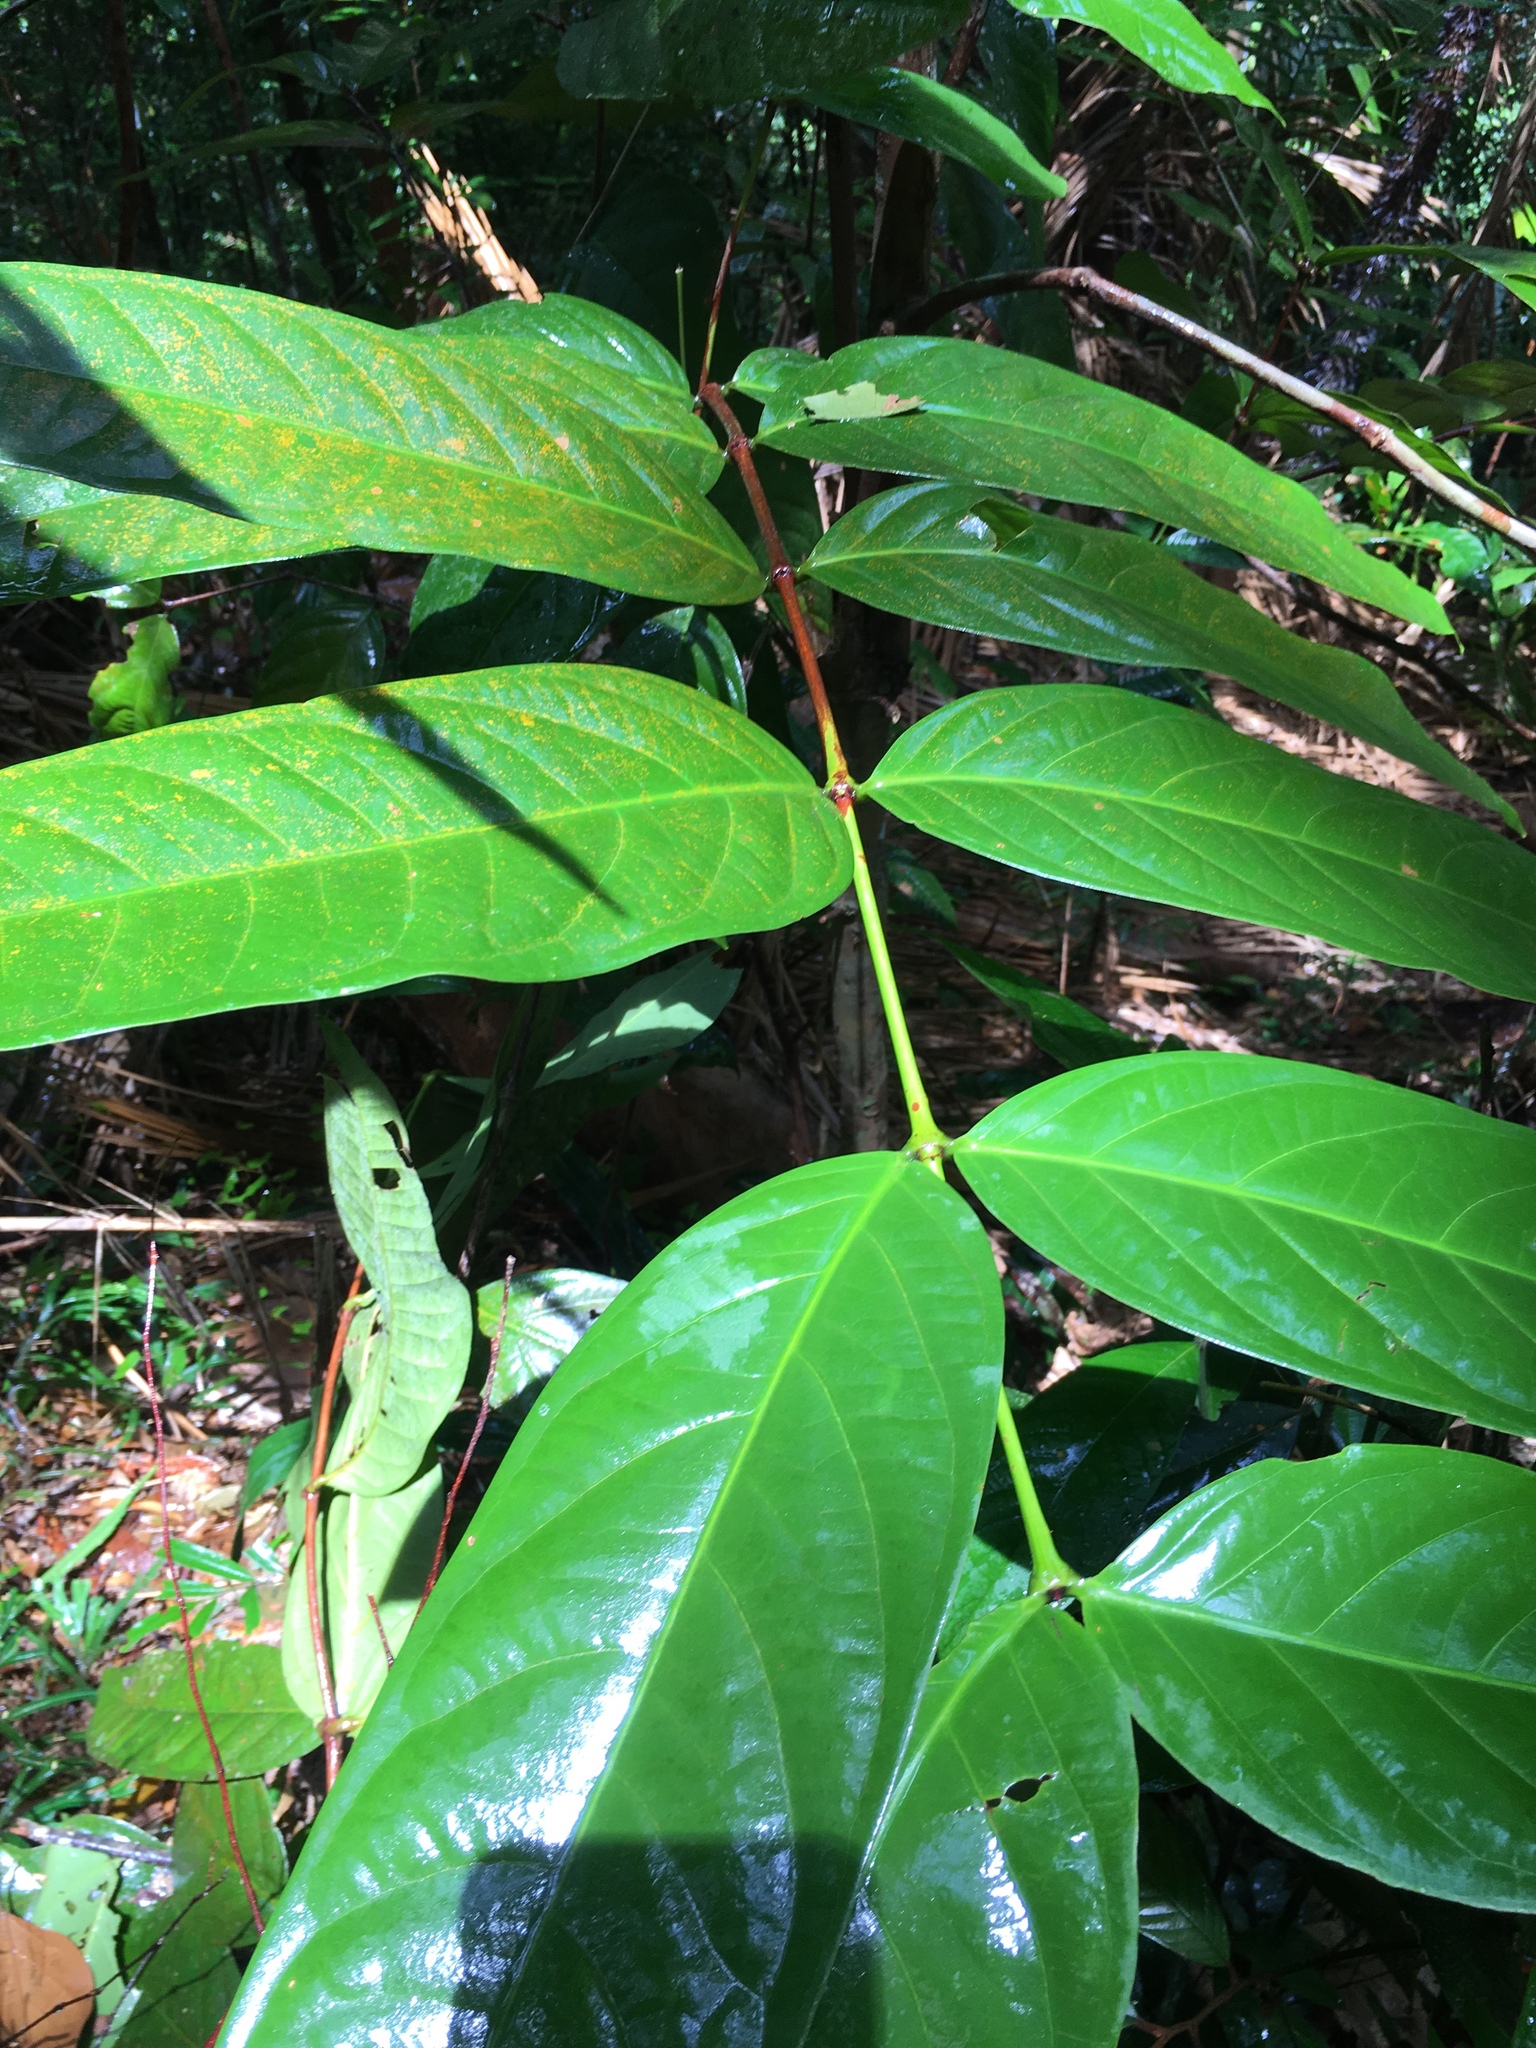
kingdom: Plantae
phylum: Tracheophyta
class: Magnoliopsida
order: Malpighiales
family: Malpighiaceae
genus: Hiptage
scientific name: Hiptage benghalensis
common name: Hiptage
